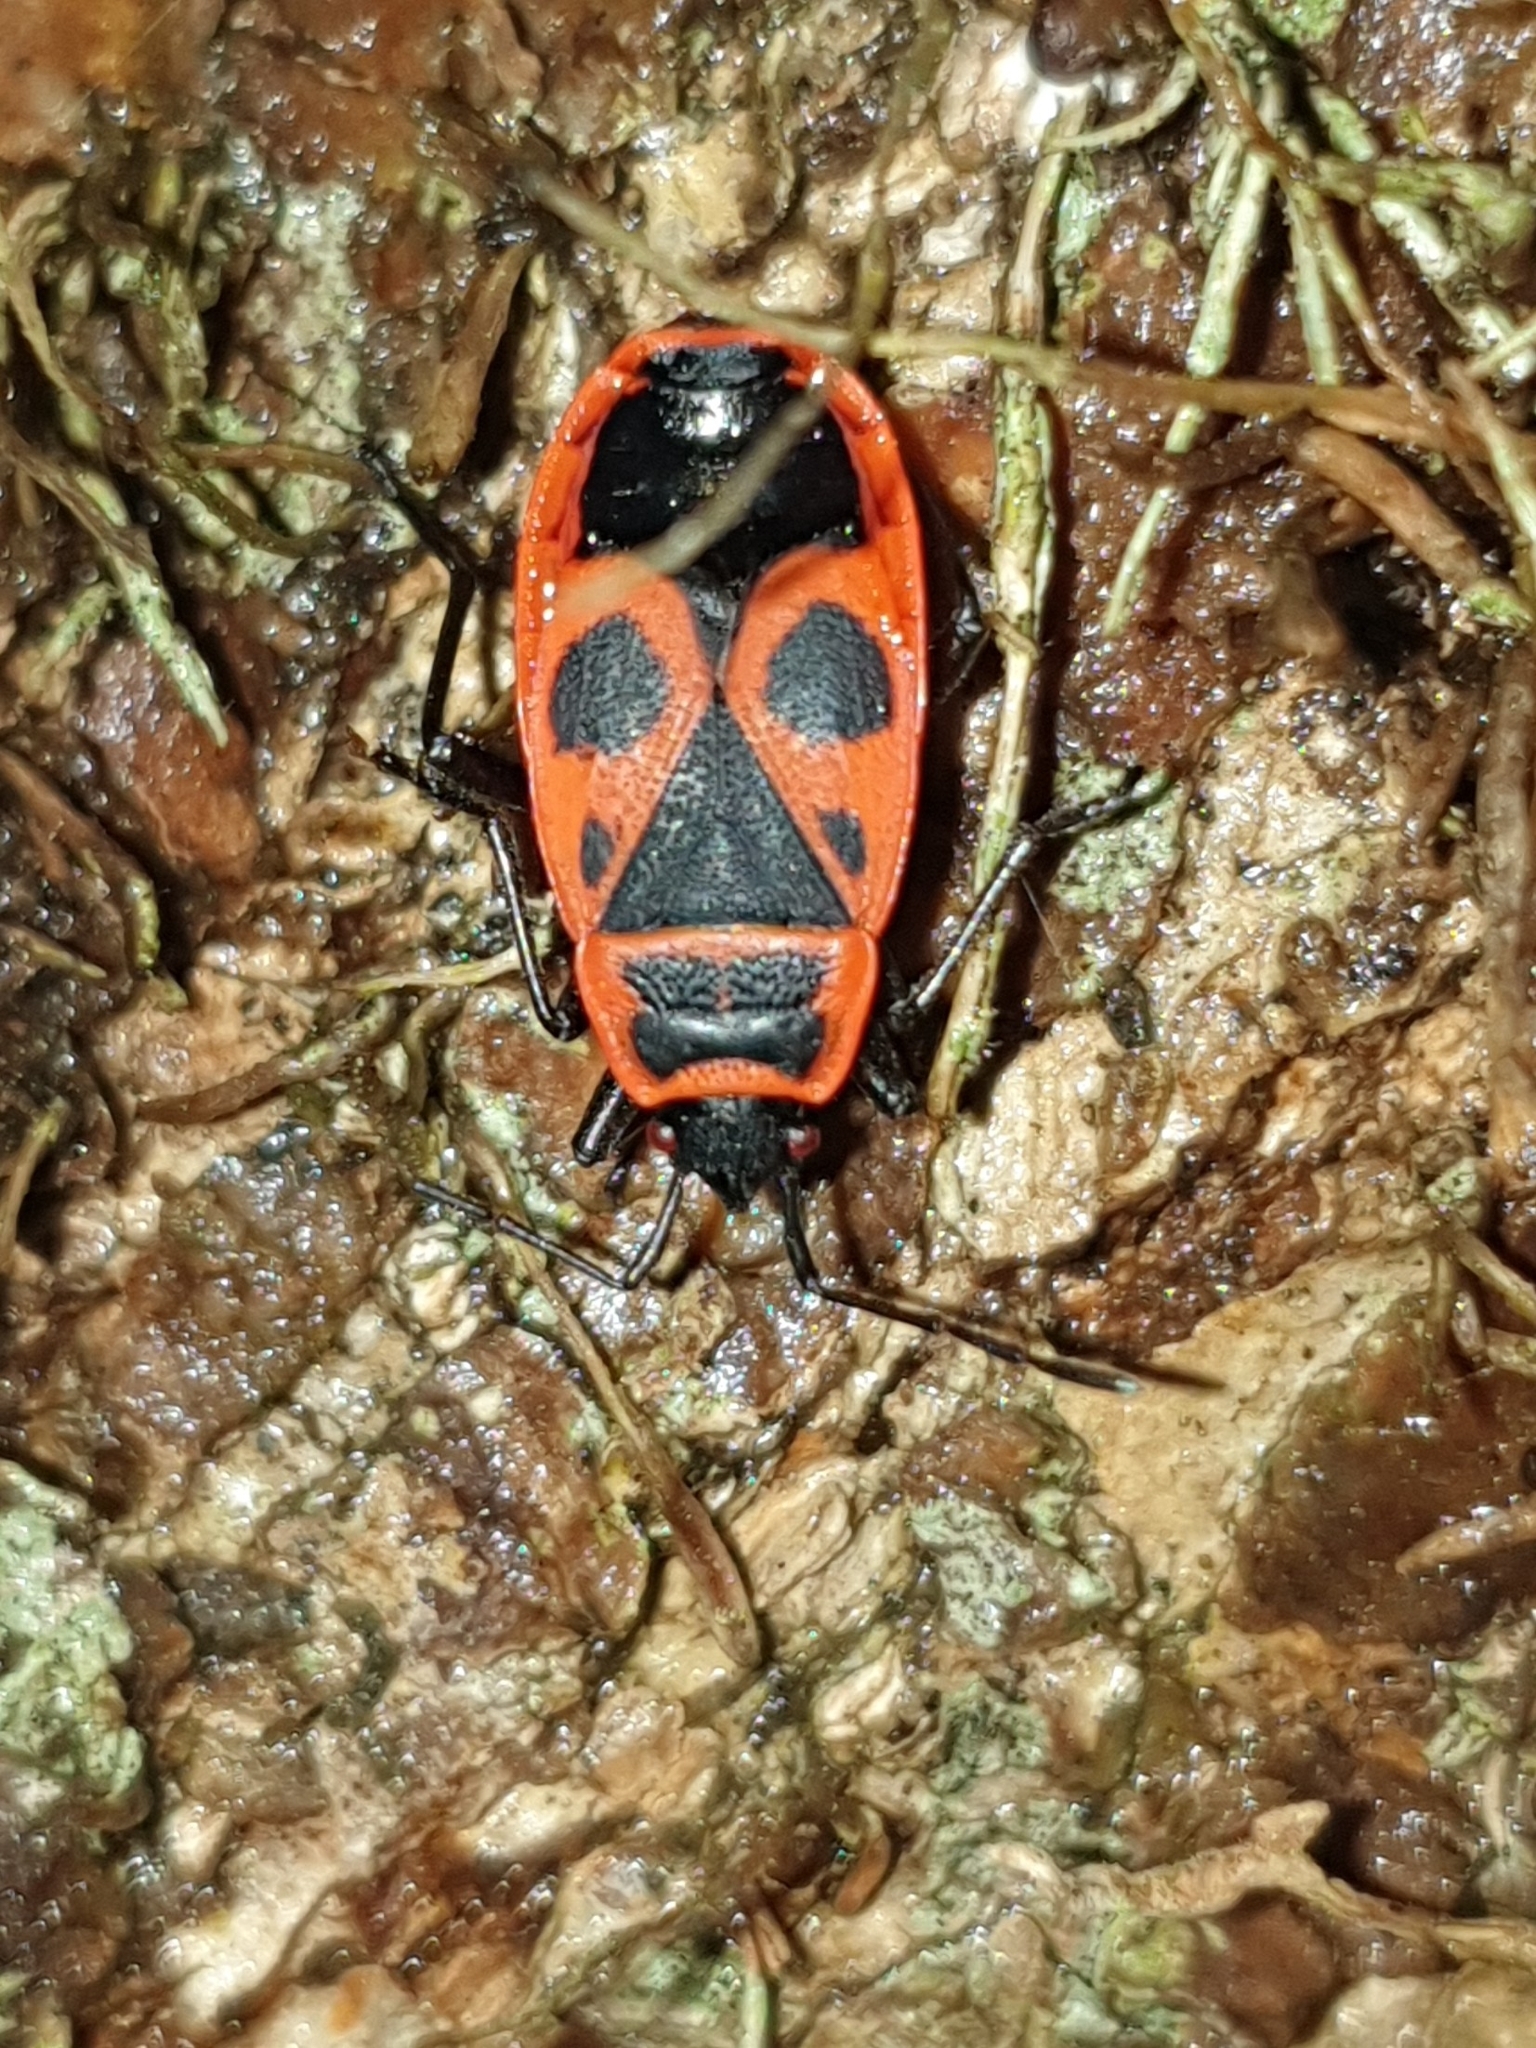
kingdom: Animalia
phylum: Arthropoda
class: Insecta
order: Hemiptera
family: Pyrrhocoridae
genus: Pyrrhocoris
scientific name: Pyrrhocoris apterus
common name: Firebug
